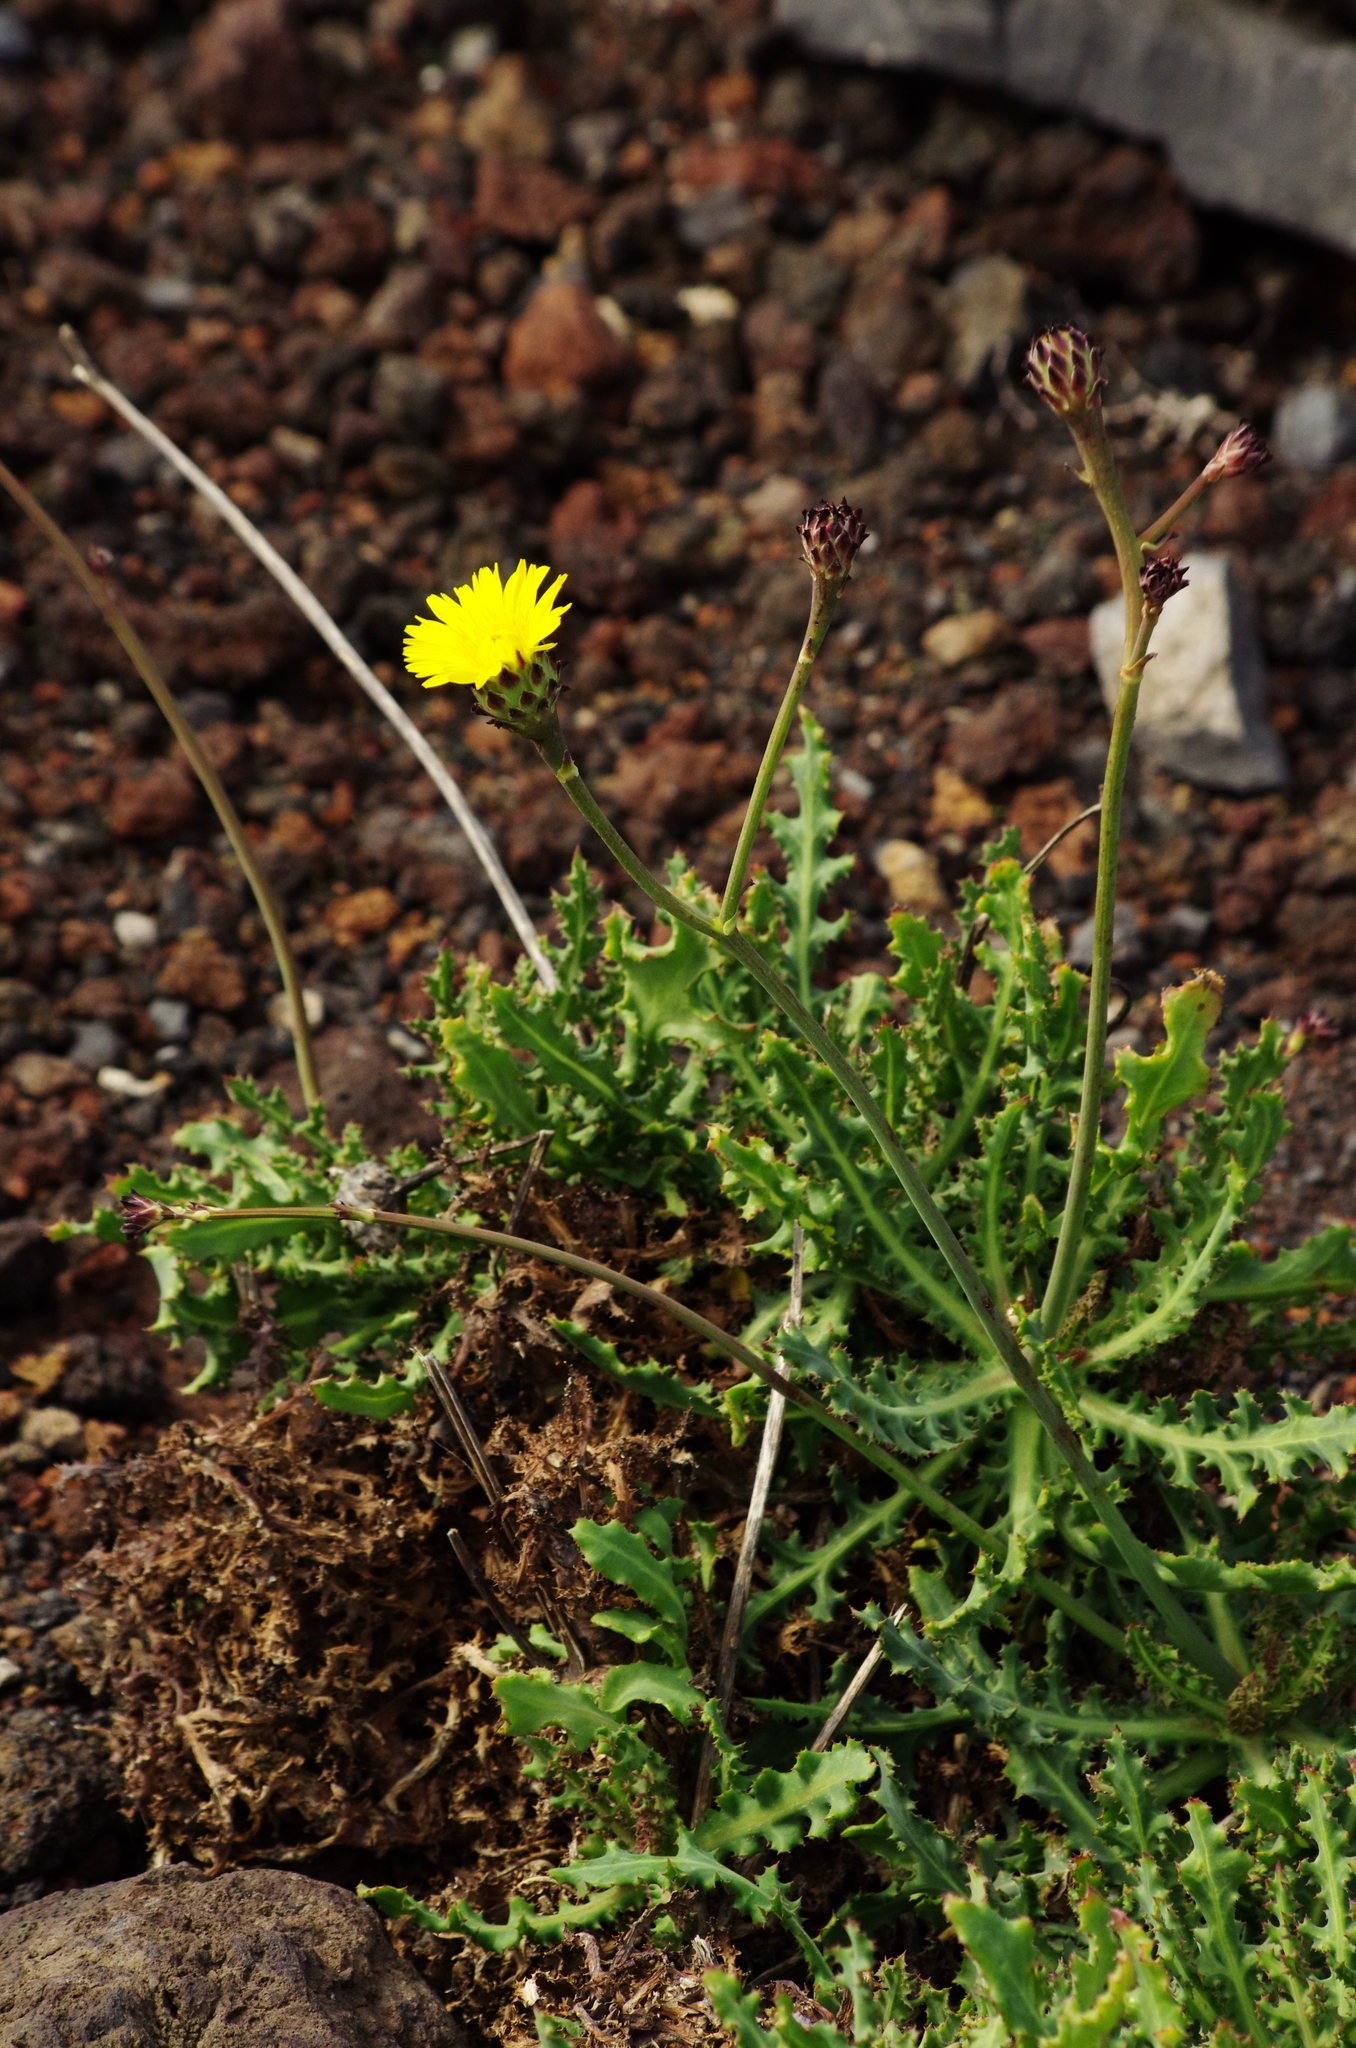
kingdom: Plantae
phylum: Tracheophyta
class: Magnoliopsida
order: Asterales
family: Asteraceae
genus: Reichardia
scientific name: Reichardia ligulata
